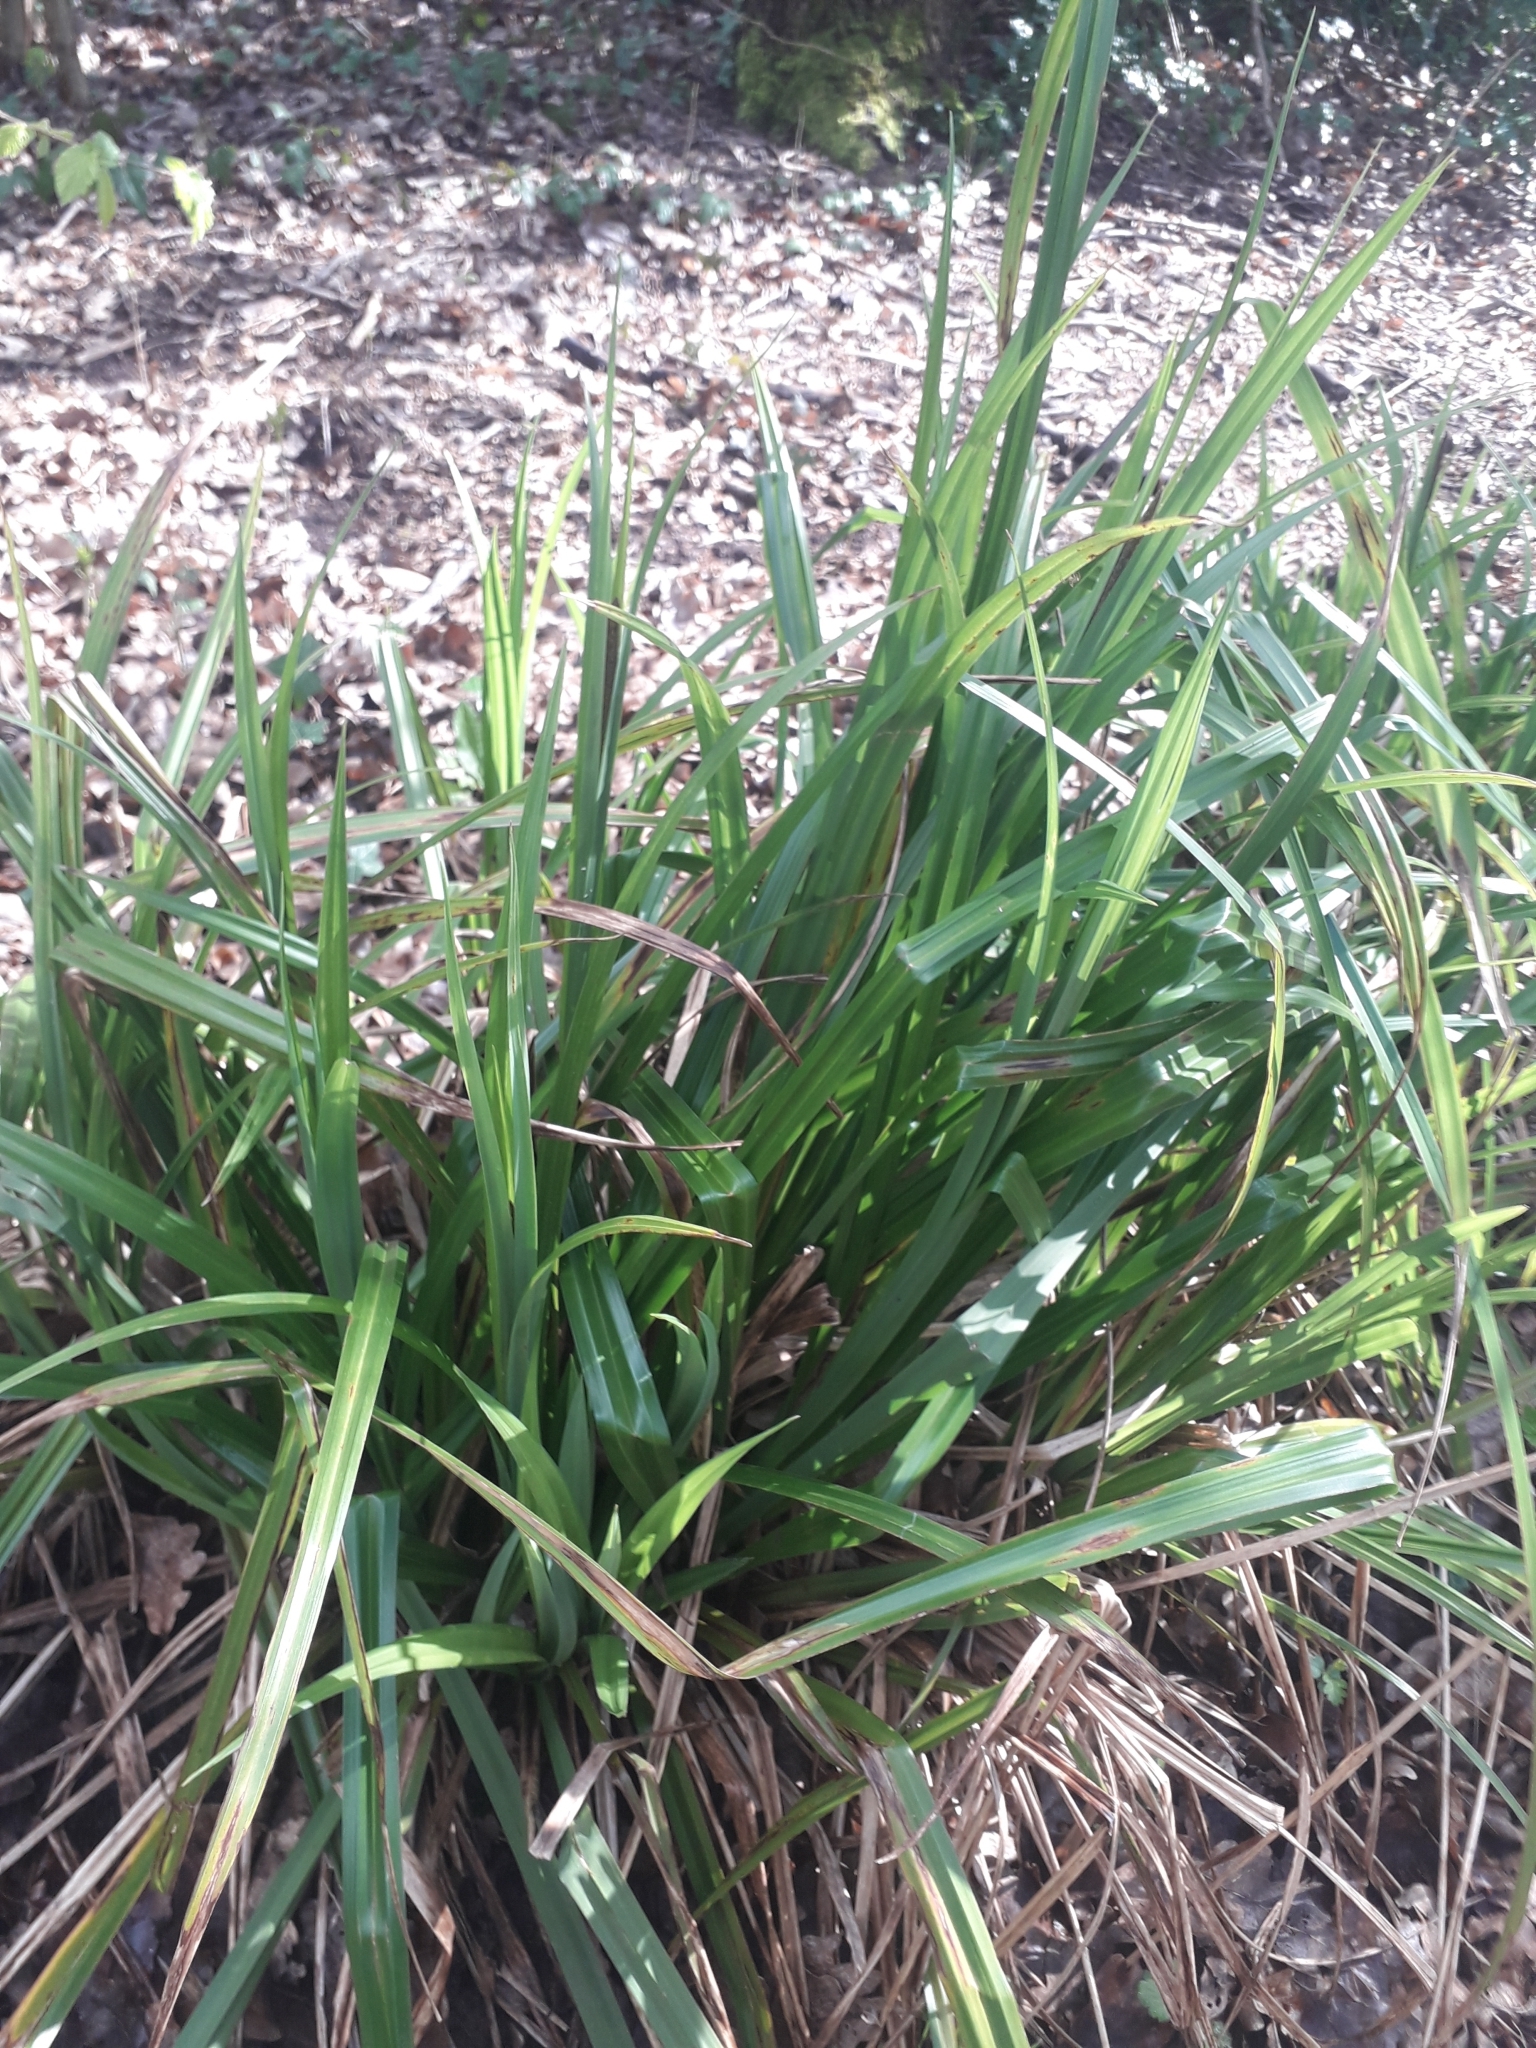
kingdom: Plantae
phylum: Tracheophyta
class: Liliopsida
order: Poales
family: Cyperaceae
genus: Carex
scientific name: Carex pendula
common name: Pendulous sedge
